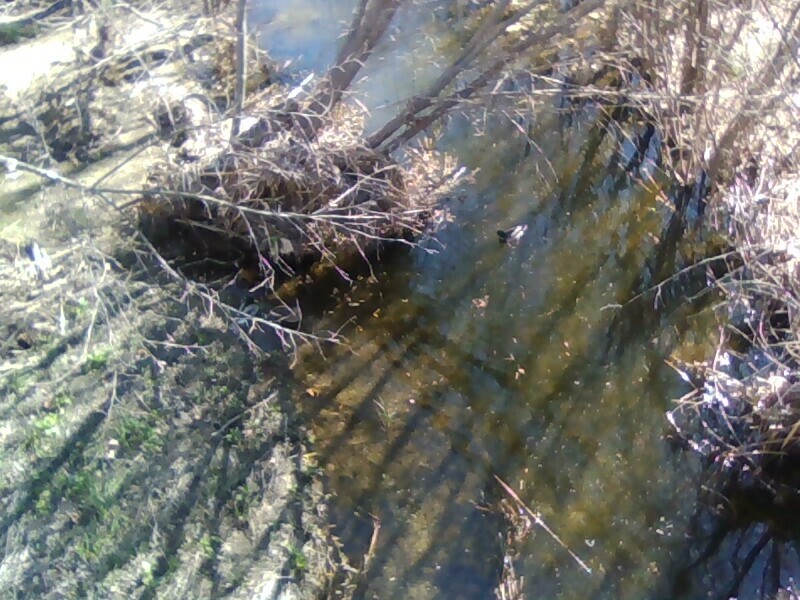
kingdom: Animalia
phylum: Chordata
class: Aves
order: Anseriformes
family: Anatidae
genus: Anas
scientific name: Anas platyrhynchos
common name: Mallard
